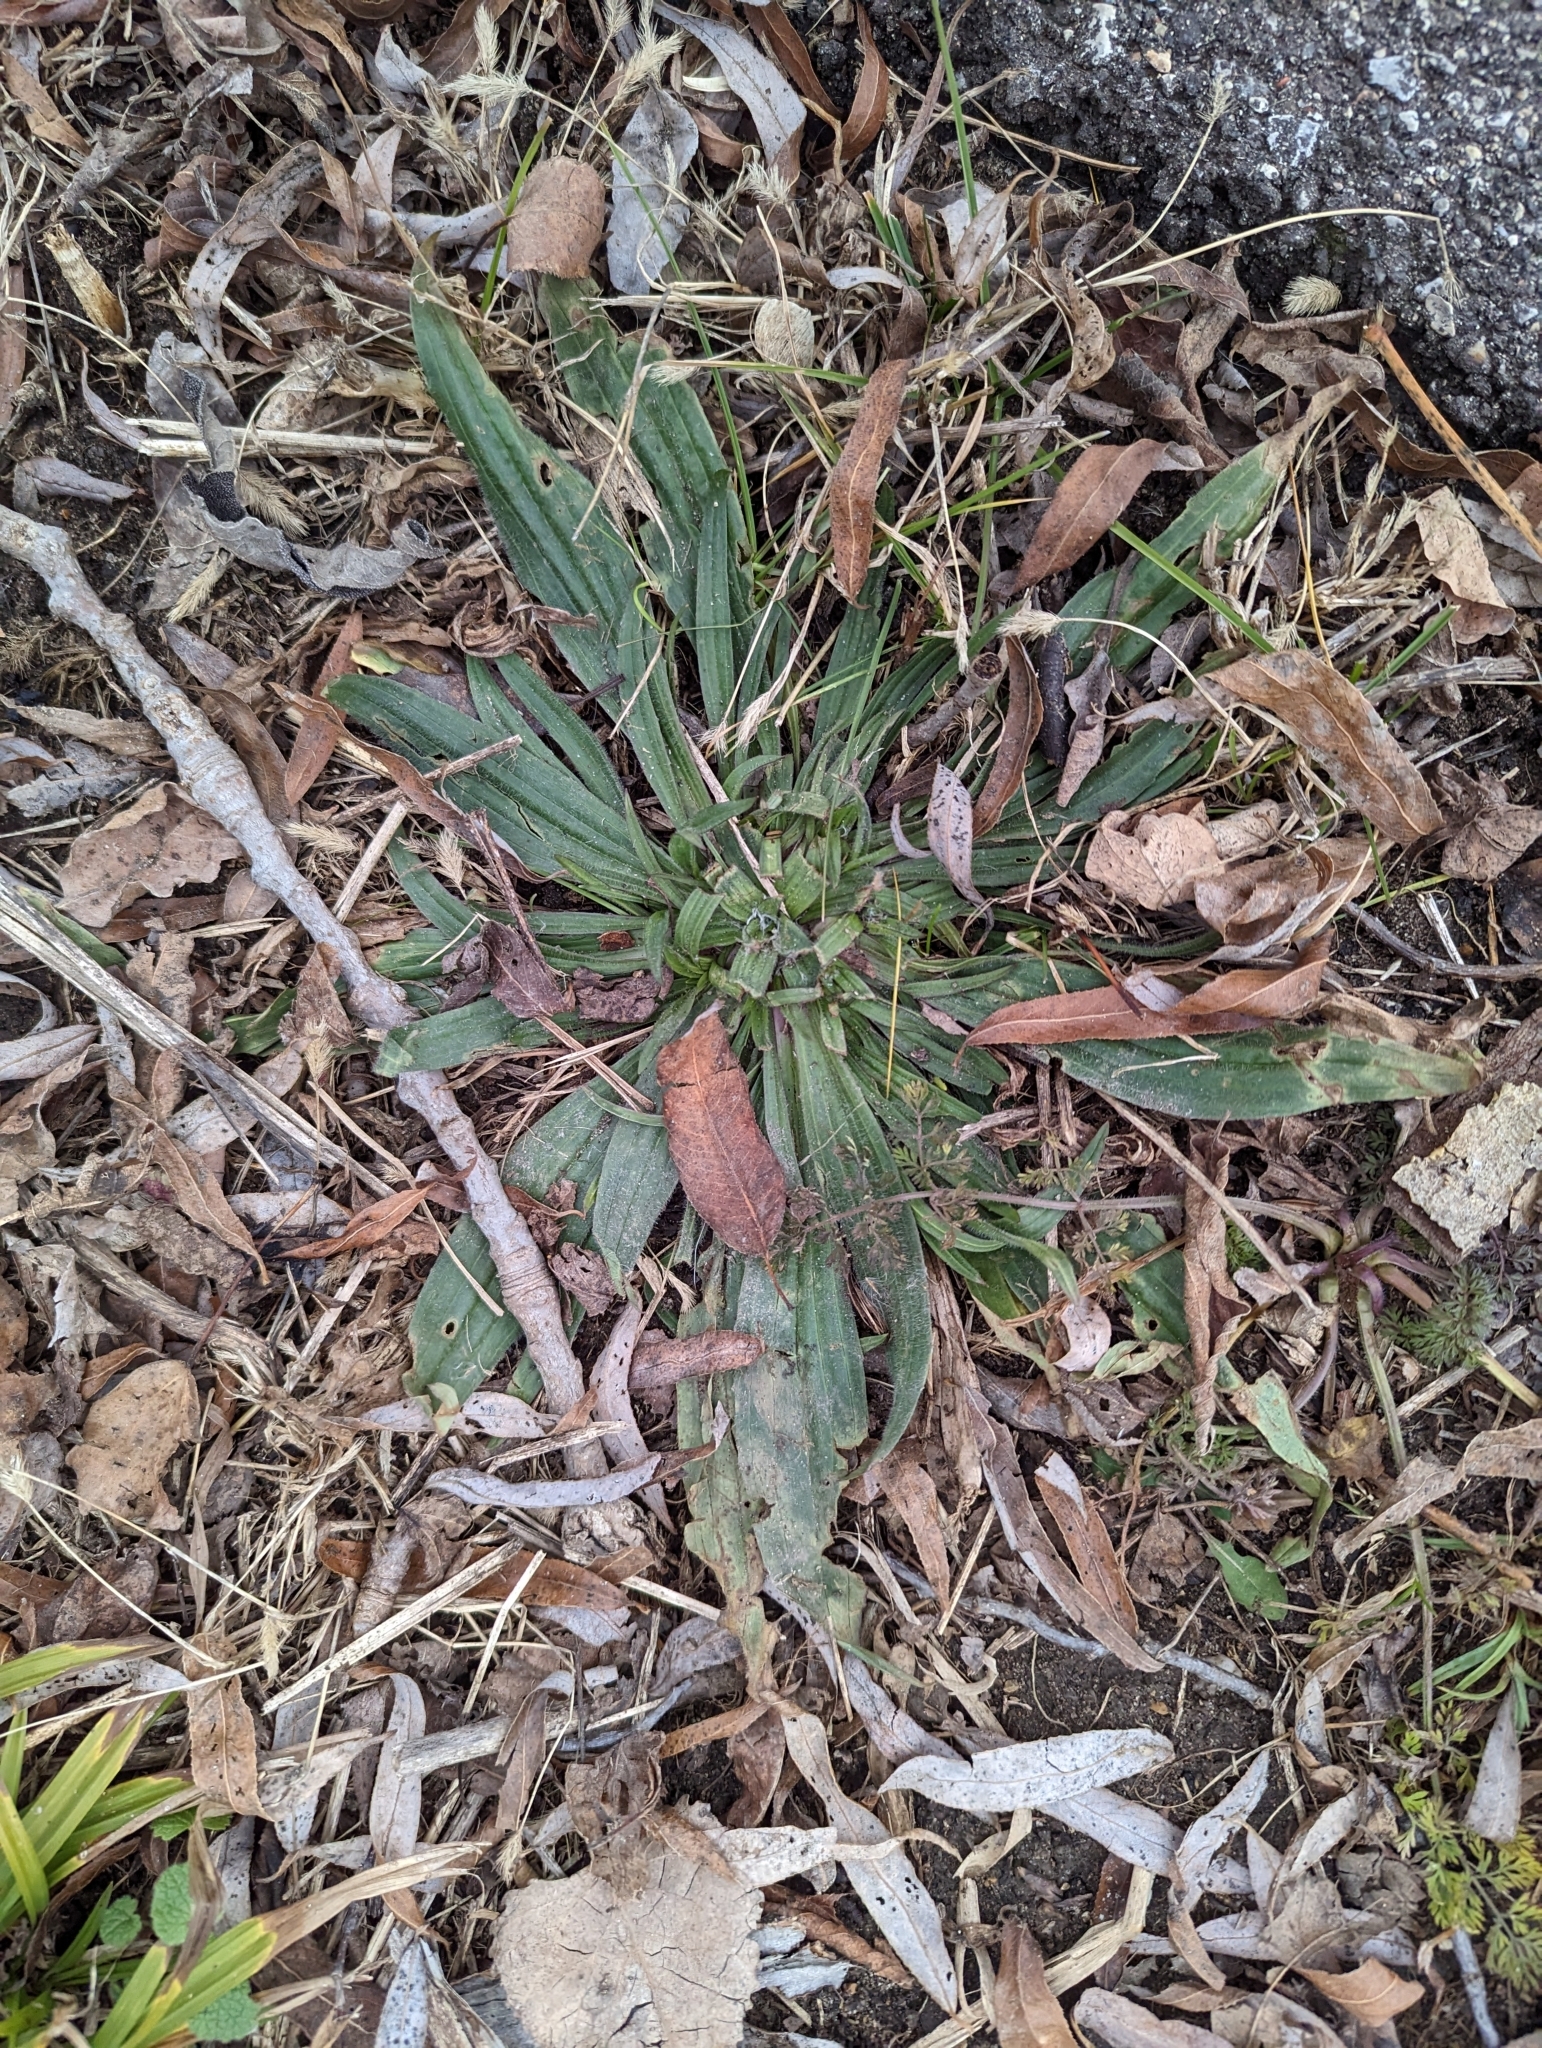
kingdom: Plantae
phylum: Tracheophyta
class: Magnoliopsida
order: Lamiales
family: Plantaginaceae
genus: Plantago
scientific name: Plantago lanceolata
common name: Ribwort plantain
